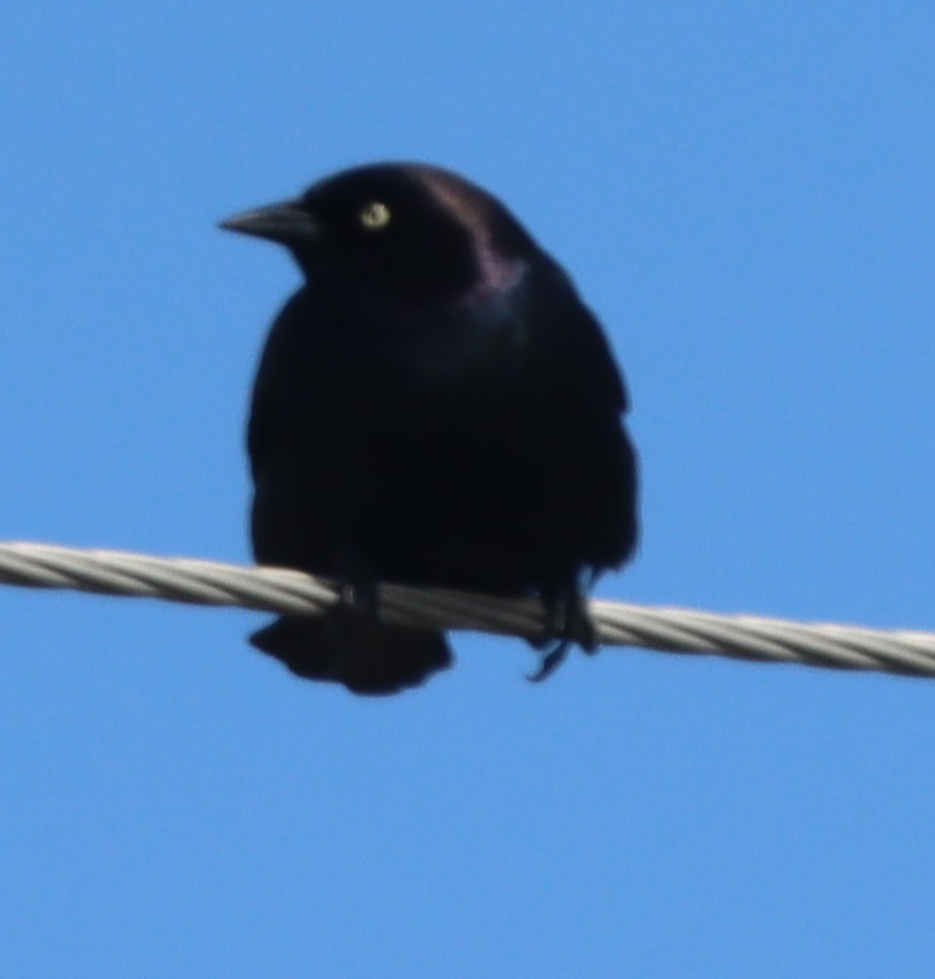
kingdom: Animalia
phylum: Chordata
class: Aves
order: Passeriformes
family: Icteridae
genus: Euphagus
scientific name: Euphagus cyanocephalus
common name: Brewer's blackbird
